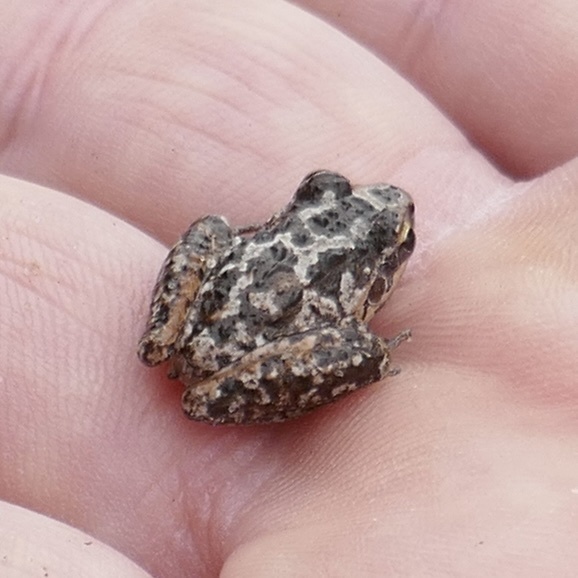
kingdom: Animalia
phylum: Chordata
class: Amphibia
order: Anura
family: Pelodryadidae
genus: Litoria
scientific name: Litoria freycineti
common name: Freycinet’s frog
